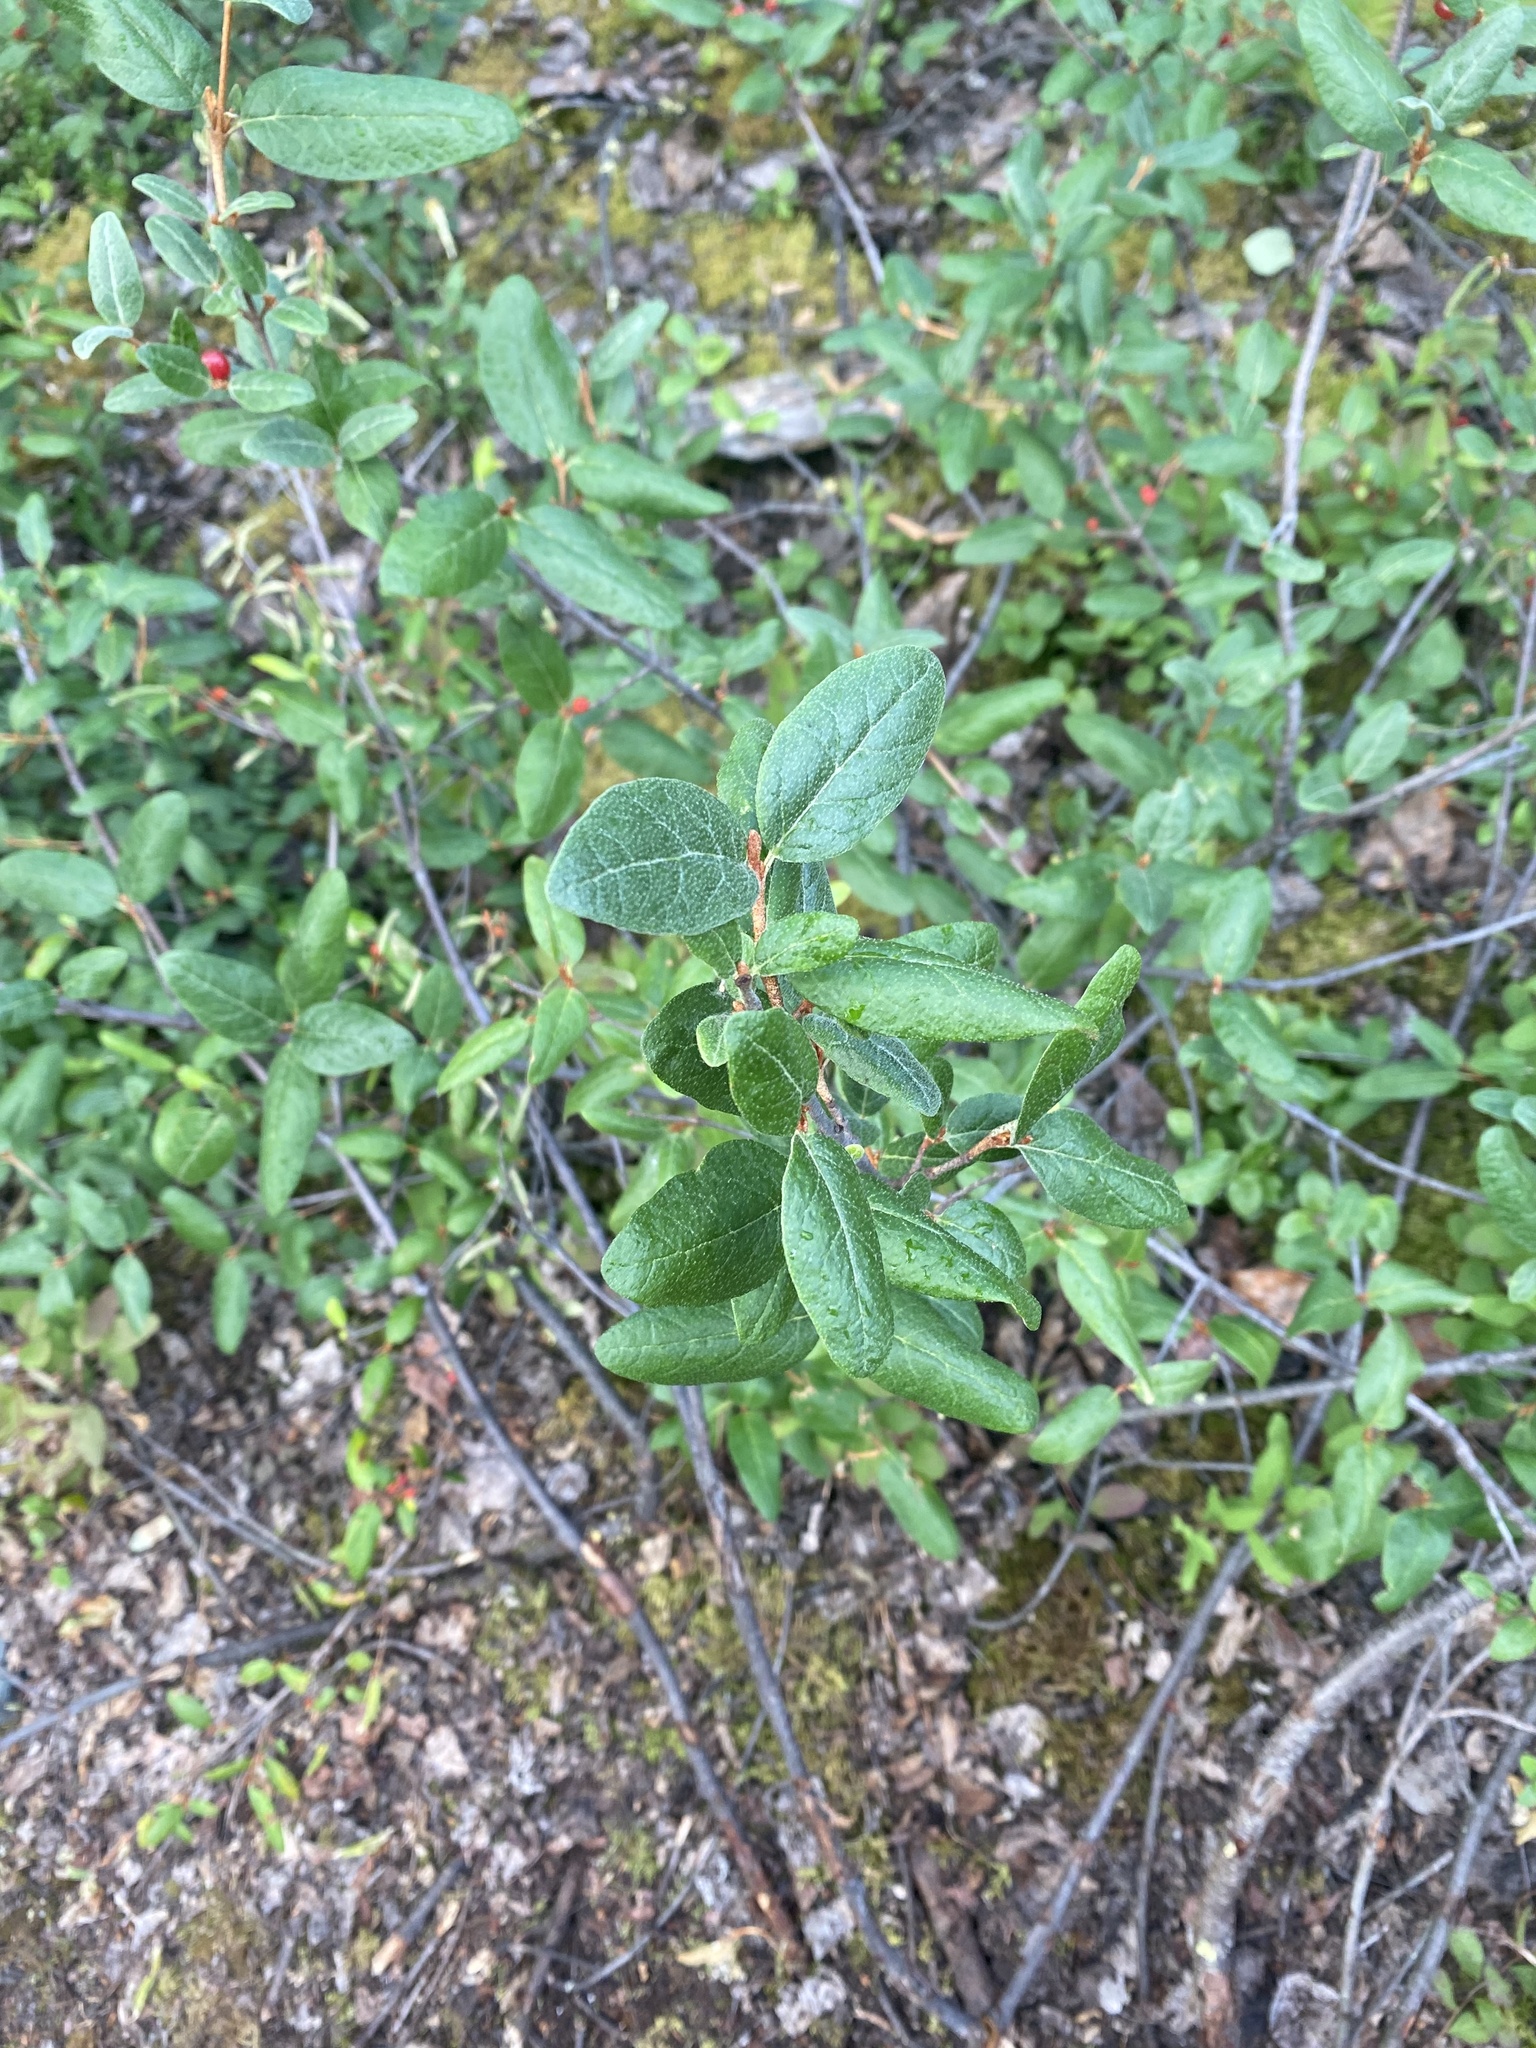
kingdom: Plantae
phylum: Tracheophyta
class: Magnoliopsida
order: Rosales
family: Elaeagnaceae
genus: Shepherdia
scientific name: Shepherdia canadensis
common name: Soapberry
